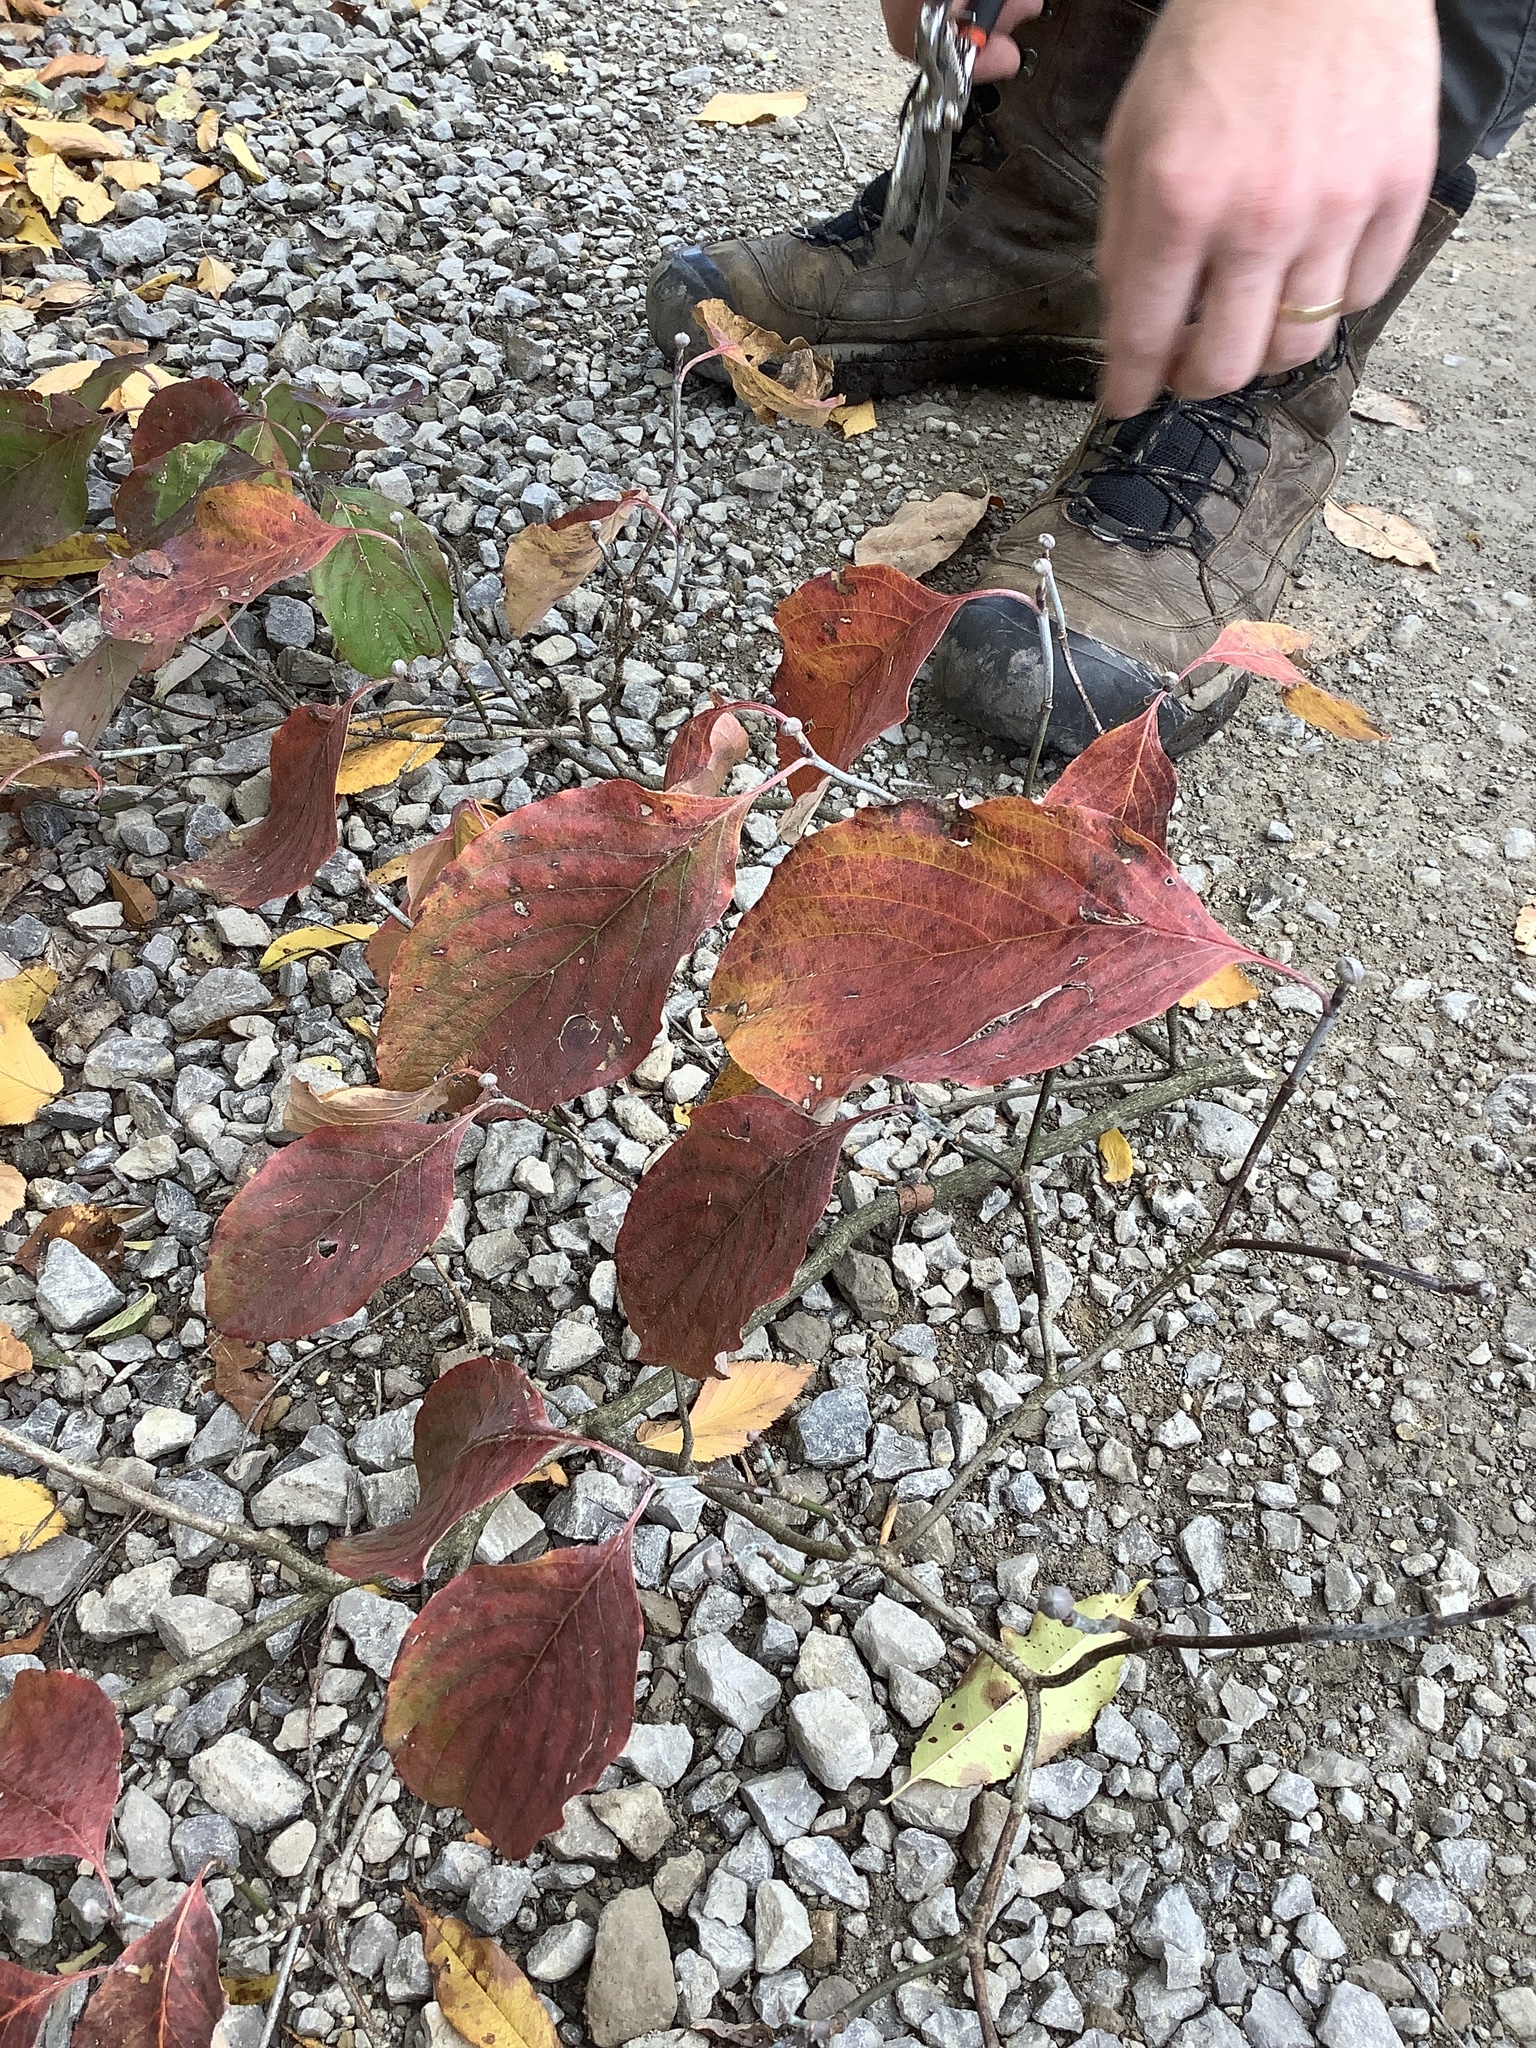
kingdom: Plantae
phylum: Tracheophyta
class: Magnoliopsida
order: Cornales
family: Cornaceae
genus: Cornus
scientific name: Cornus florida
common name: Flowering dogwood
